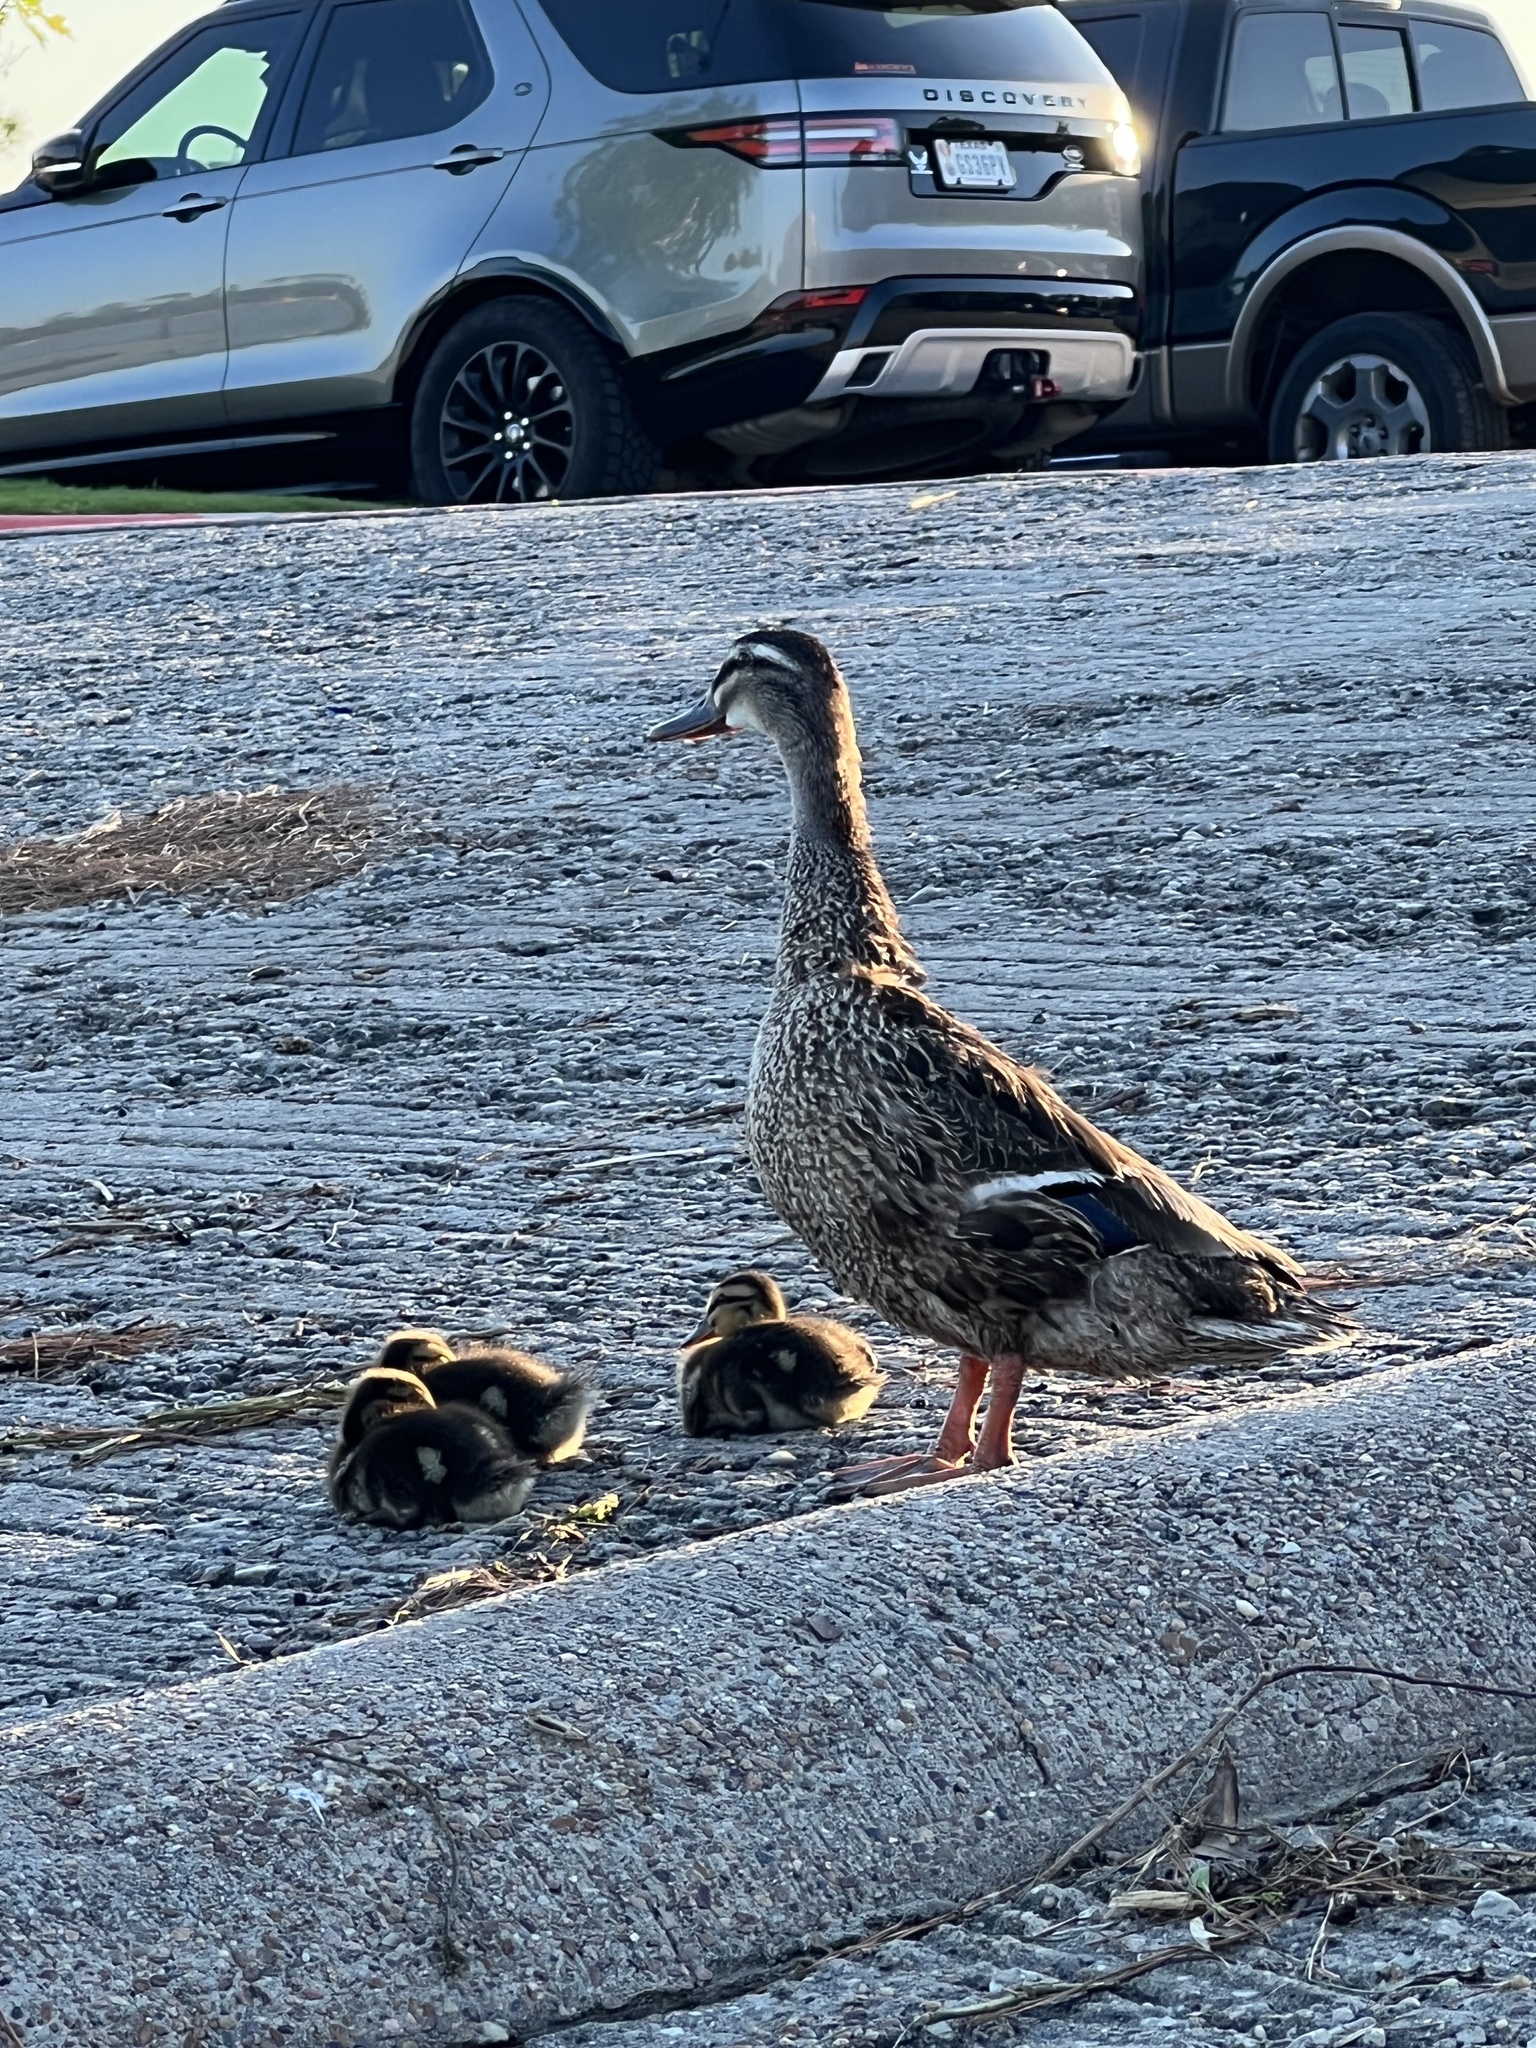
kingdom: Animalia
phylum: Chordata
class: Aves
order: Anseriformes
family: Anatidae
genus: Anas
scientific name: Anas platyrhynchos
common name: Mallard
